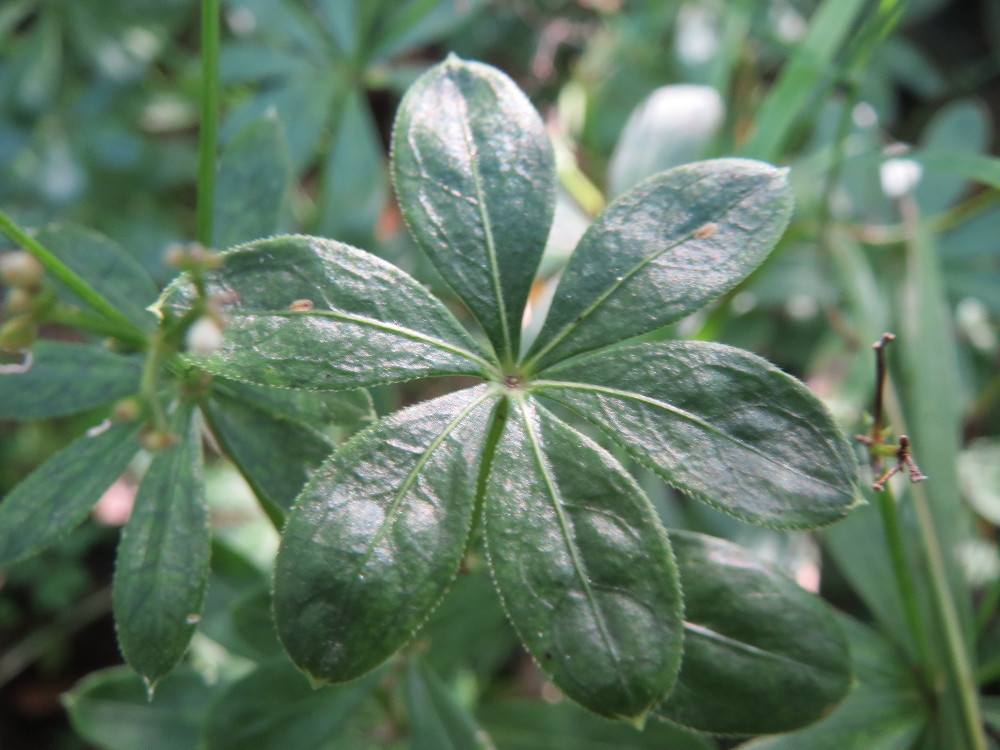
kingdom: Plantae
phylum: Tracheophyta
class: Magnoliopsida
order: Gentianales
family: Rubiaceae
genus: Galium
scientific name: Galium odoratum
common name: Sweet woodruff
